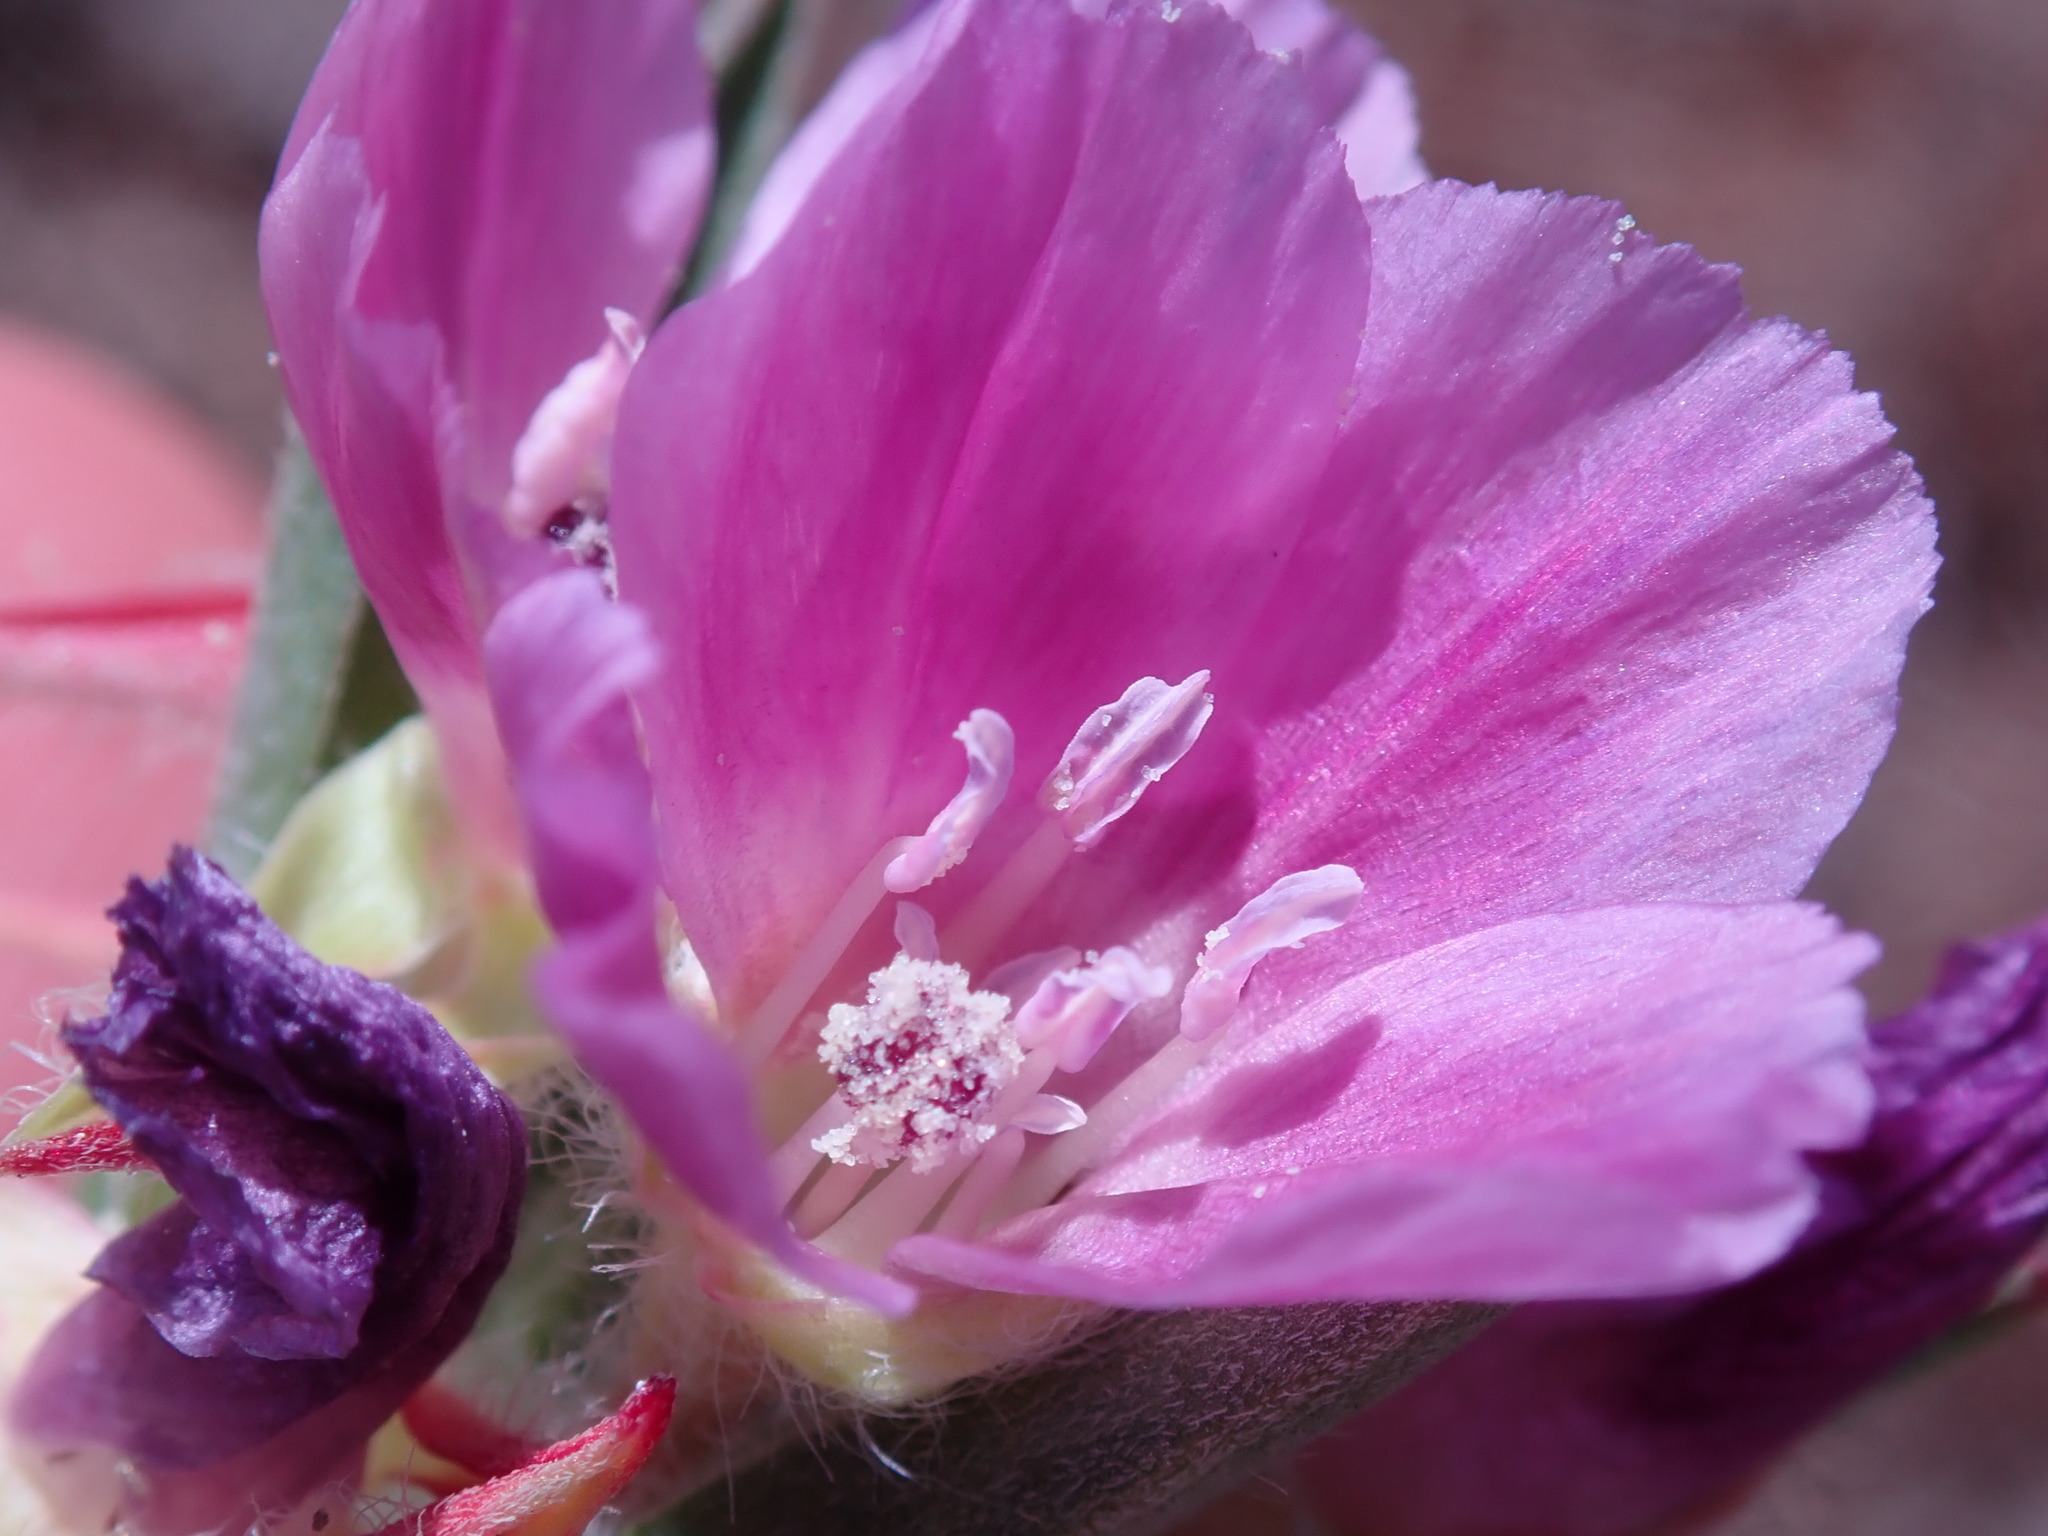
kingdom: Plantae
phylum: Tracheophyta
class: Magnoliopsida
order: Myrtales
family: Onagraceae
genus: Clarkia
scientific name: Clarkia purpurea
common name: Purple clarkia
